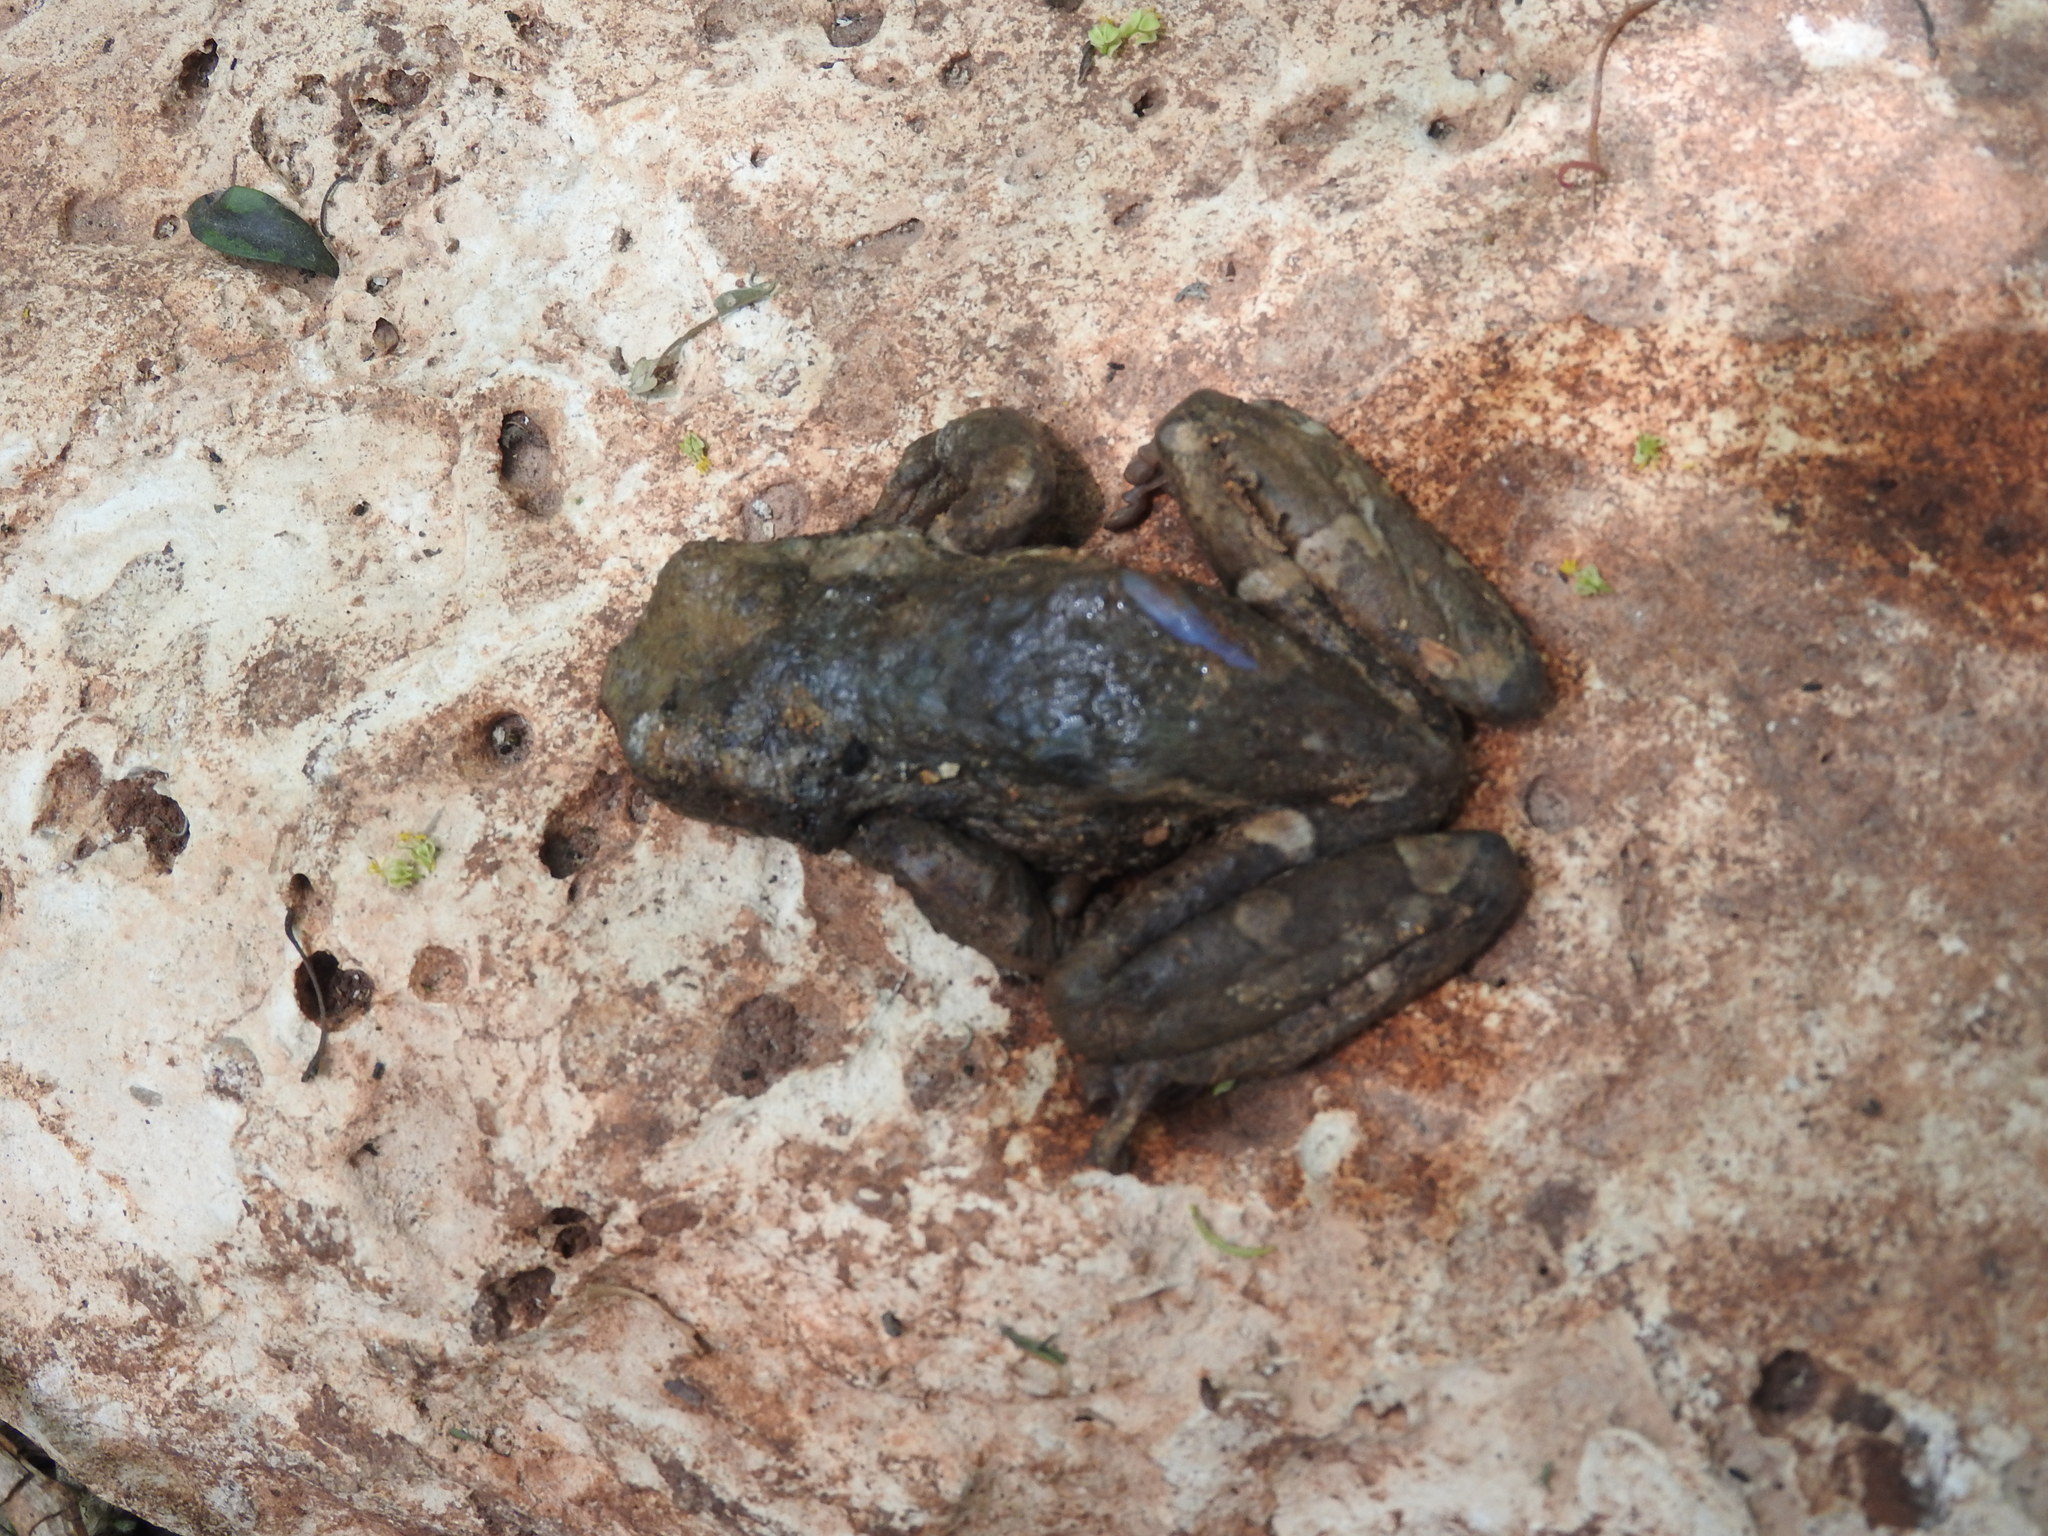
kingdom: Animalia
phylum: Chordata
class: Amphibia
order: Anura
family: Hylidae
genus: Trachycephalus
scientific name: Trachycephalus vermiculatus
